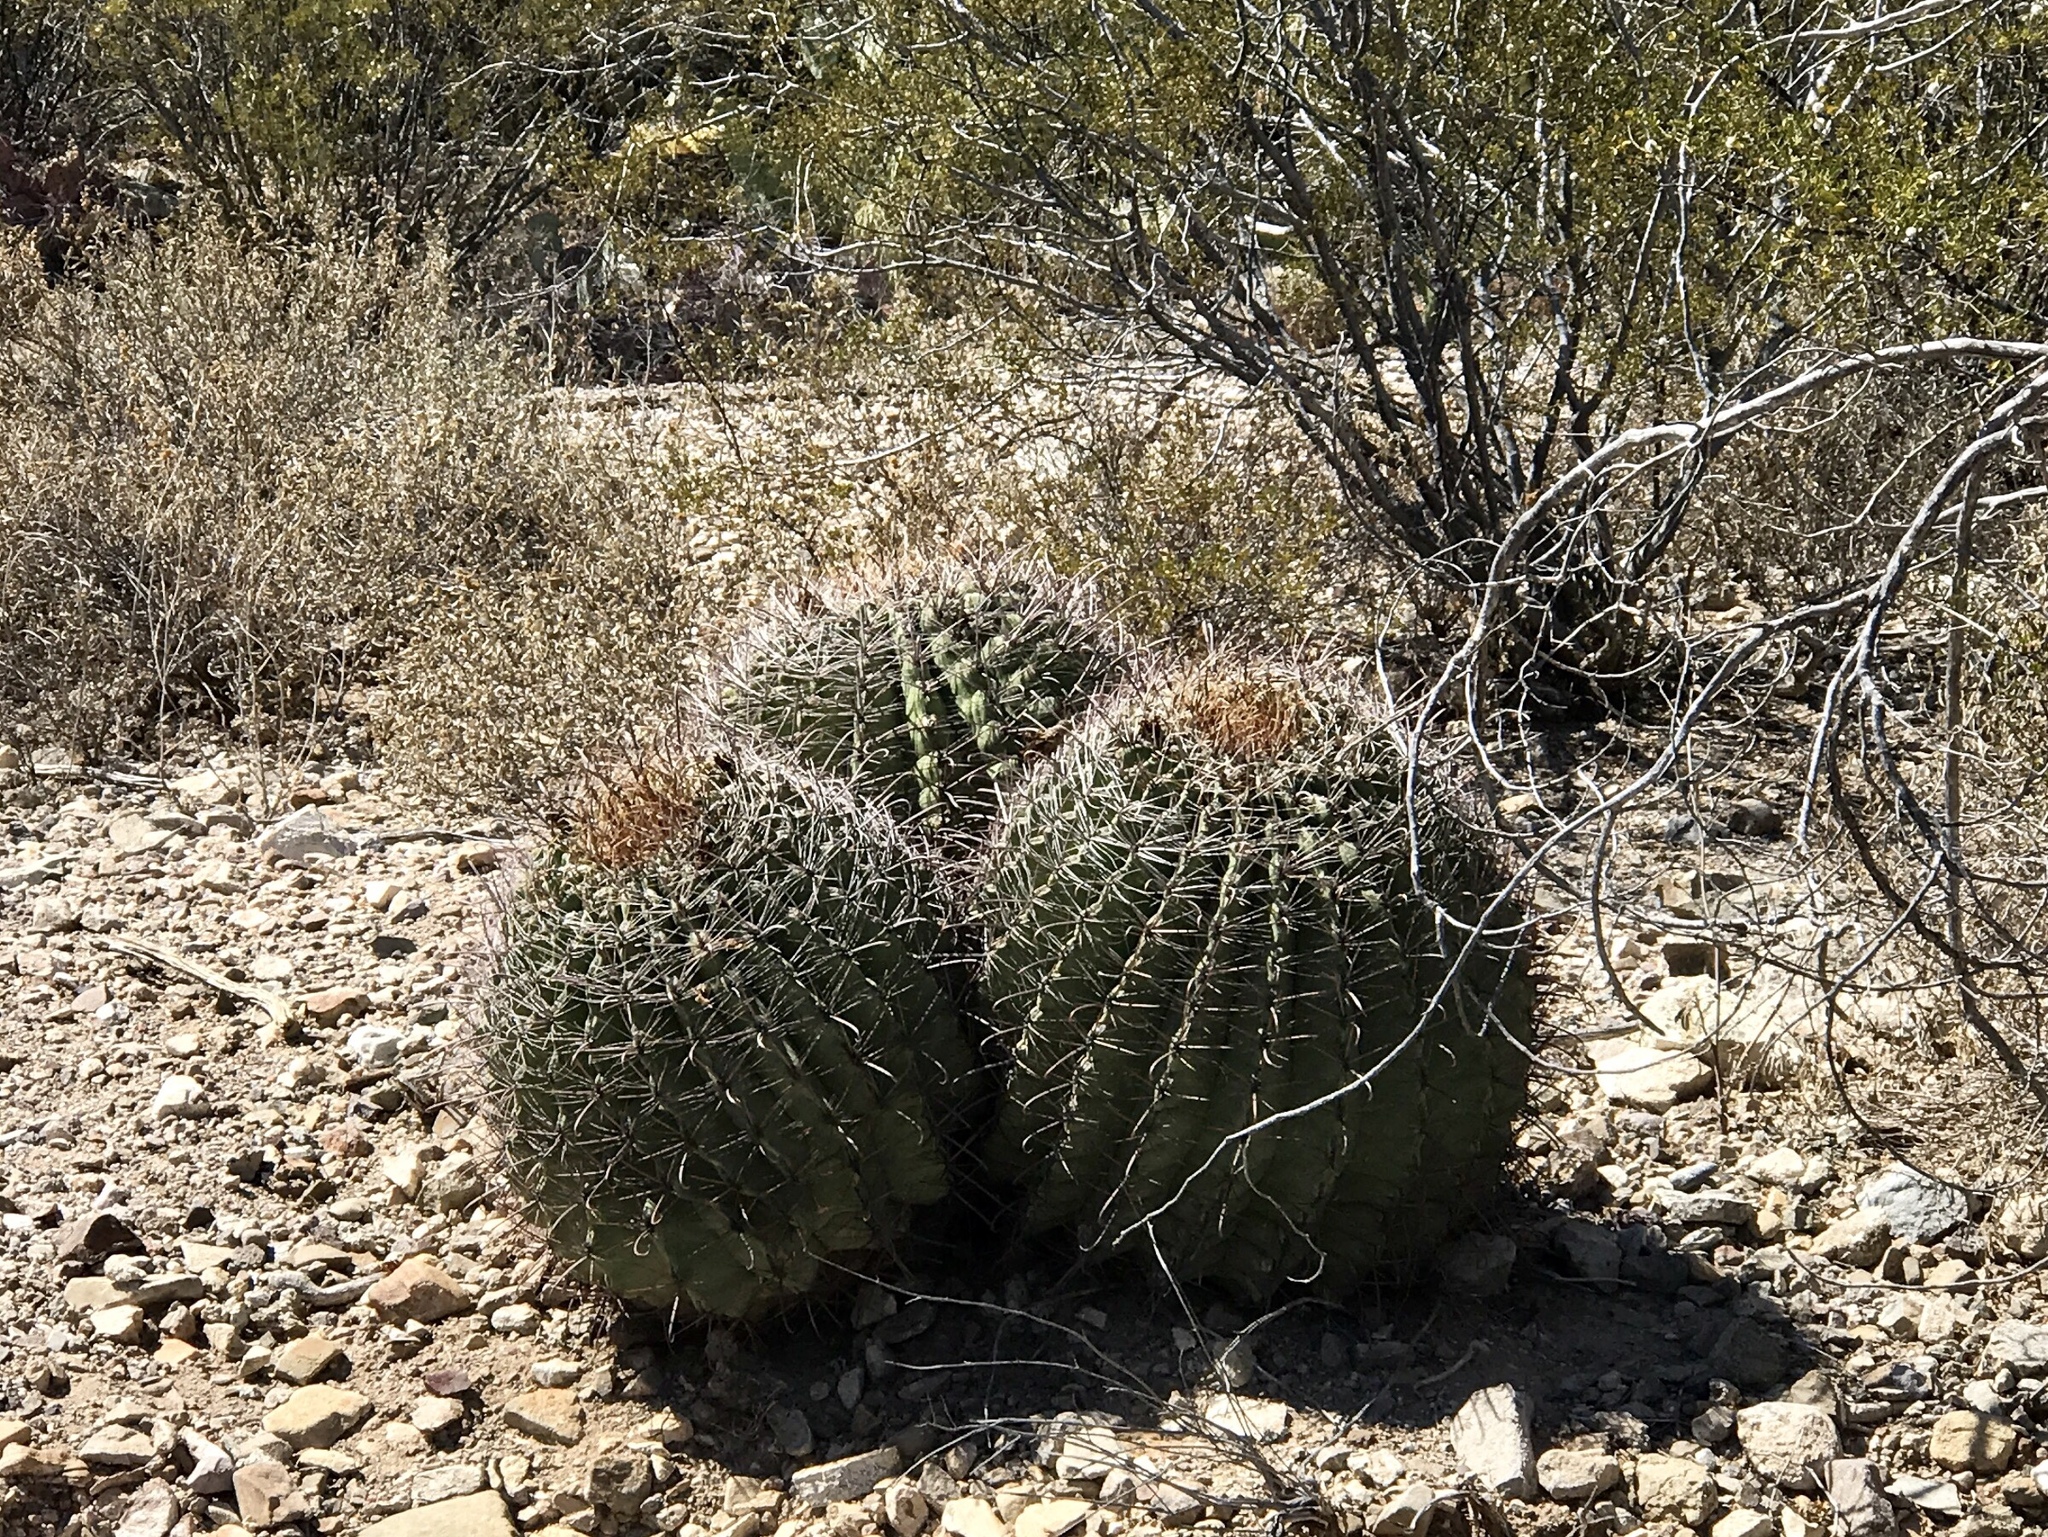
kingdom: Plantae
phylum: Tracheophyta
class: Magnoliopsida
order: Caryophyllales
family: Cactaceae
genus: Ferocactus
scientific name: Ferocactus wislizeni
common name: Candy barrel cactus
